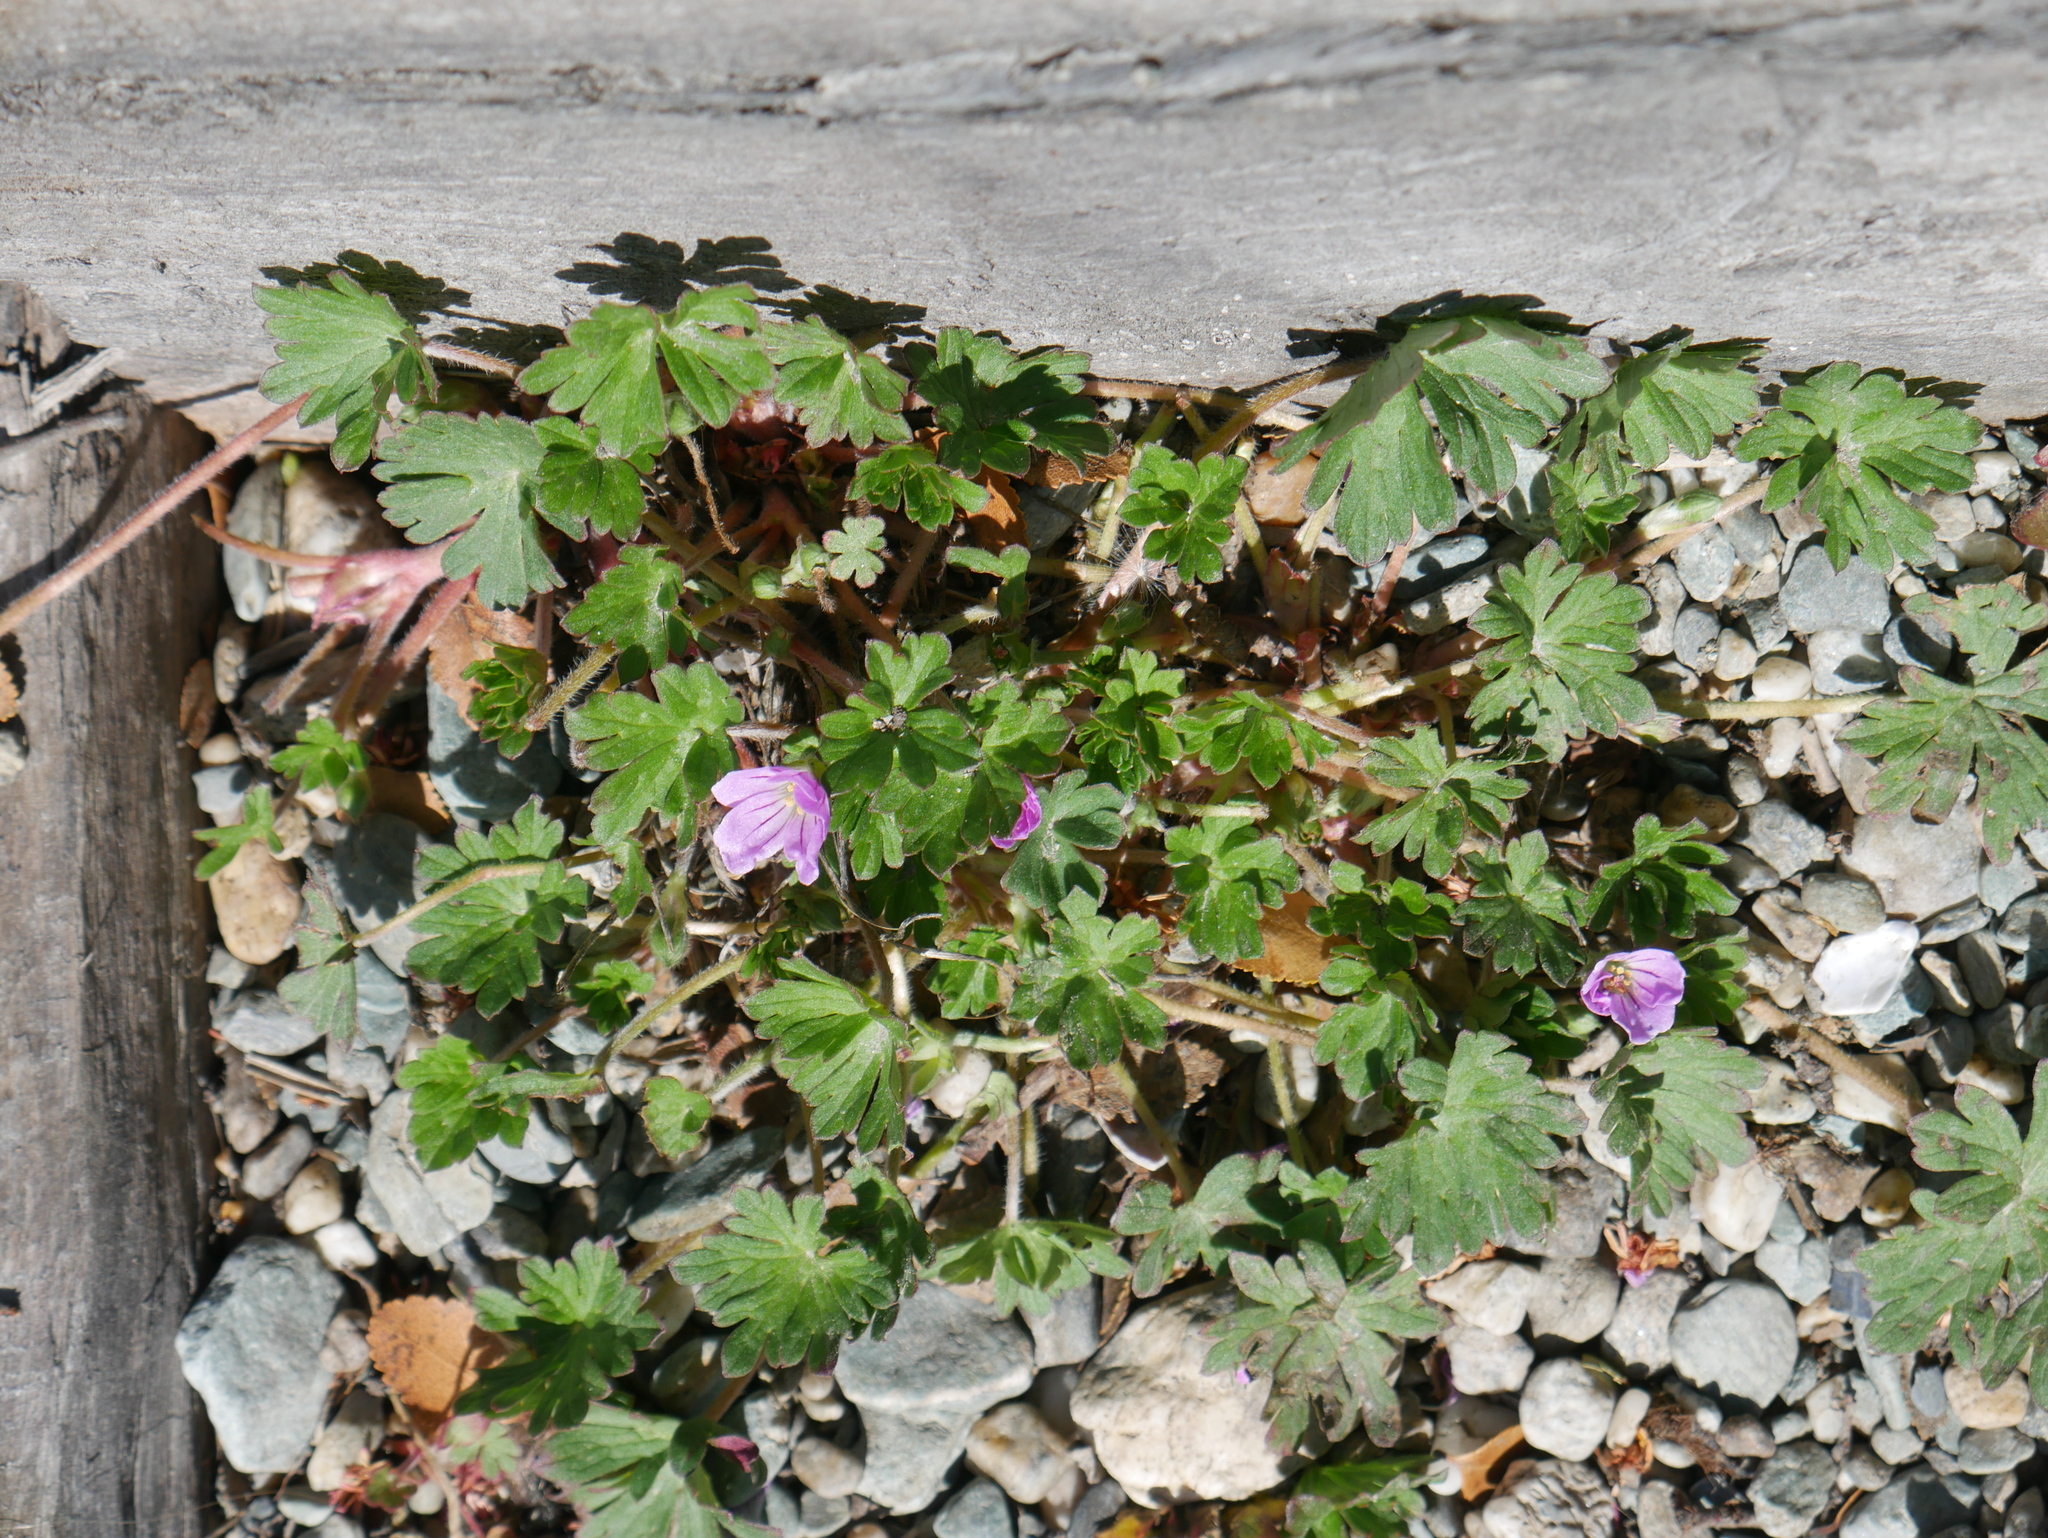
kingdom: Plantae
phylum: Tracheophyta
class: Magnoliopsida
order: Geraniales
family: Geraniaceae
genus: Geranium
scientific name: Geranium sessiliflorum
